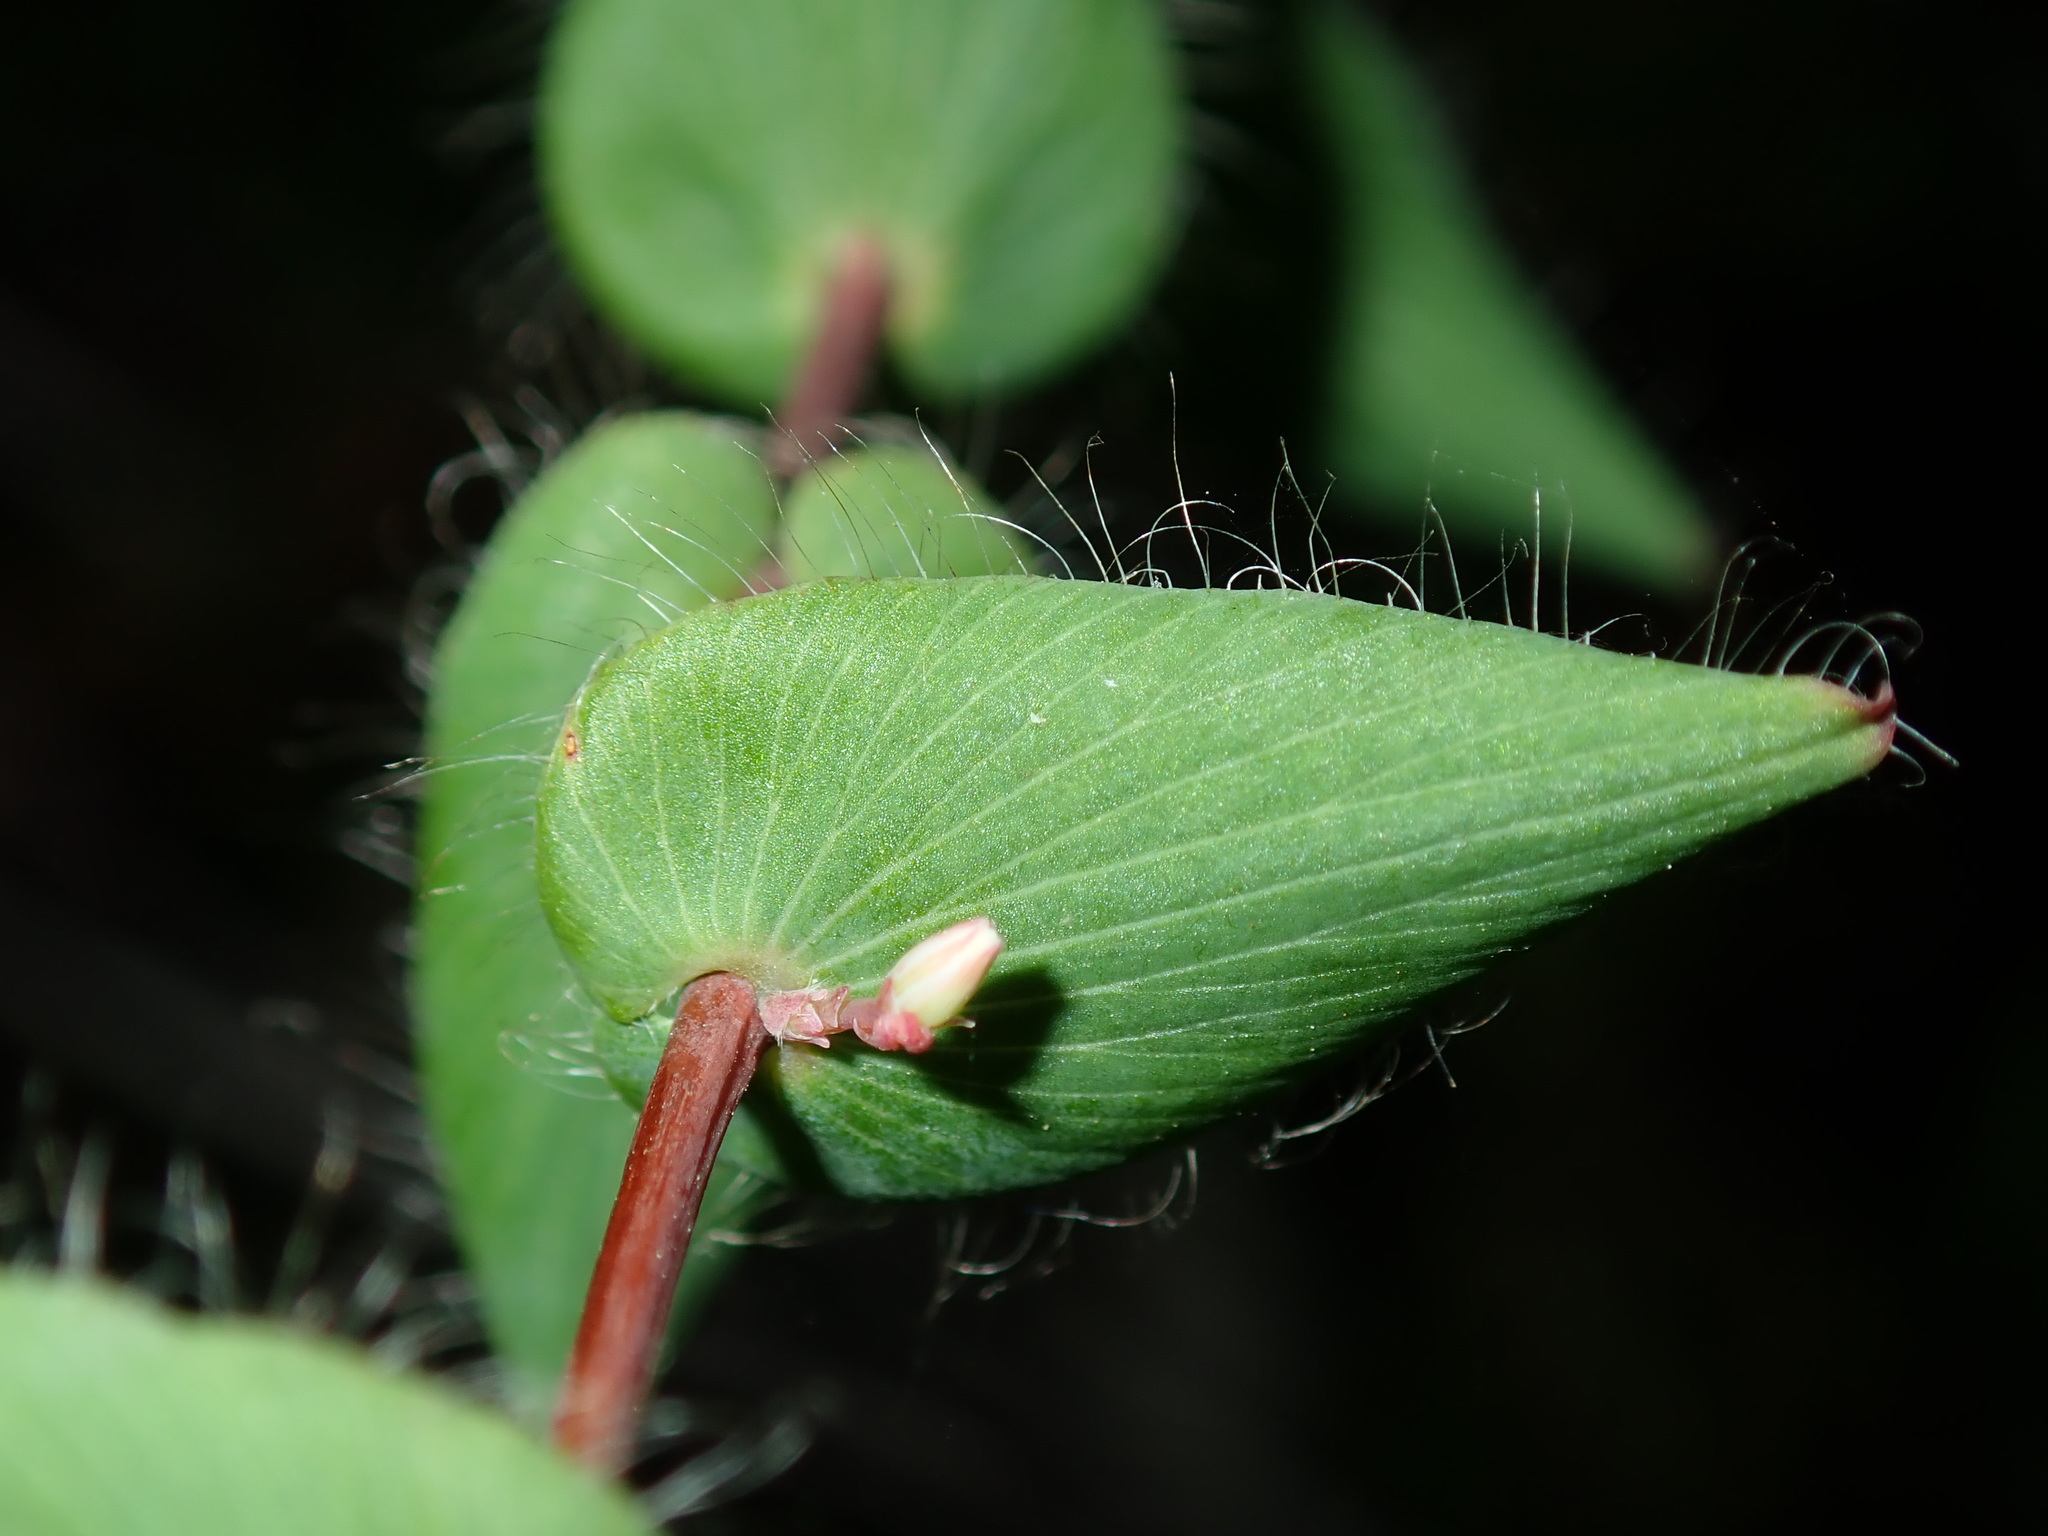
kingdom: Plantae
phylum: Tracheophyta
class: Magnoliopsida
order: Ericales
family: Ericaceae
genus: Leucopogon
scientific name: Leucopogon amplexicaulis
